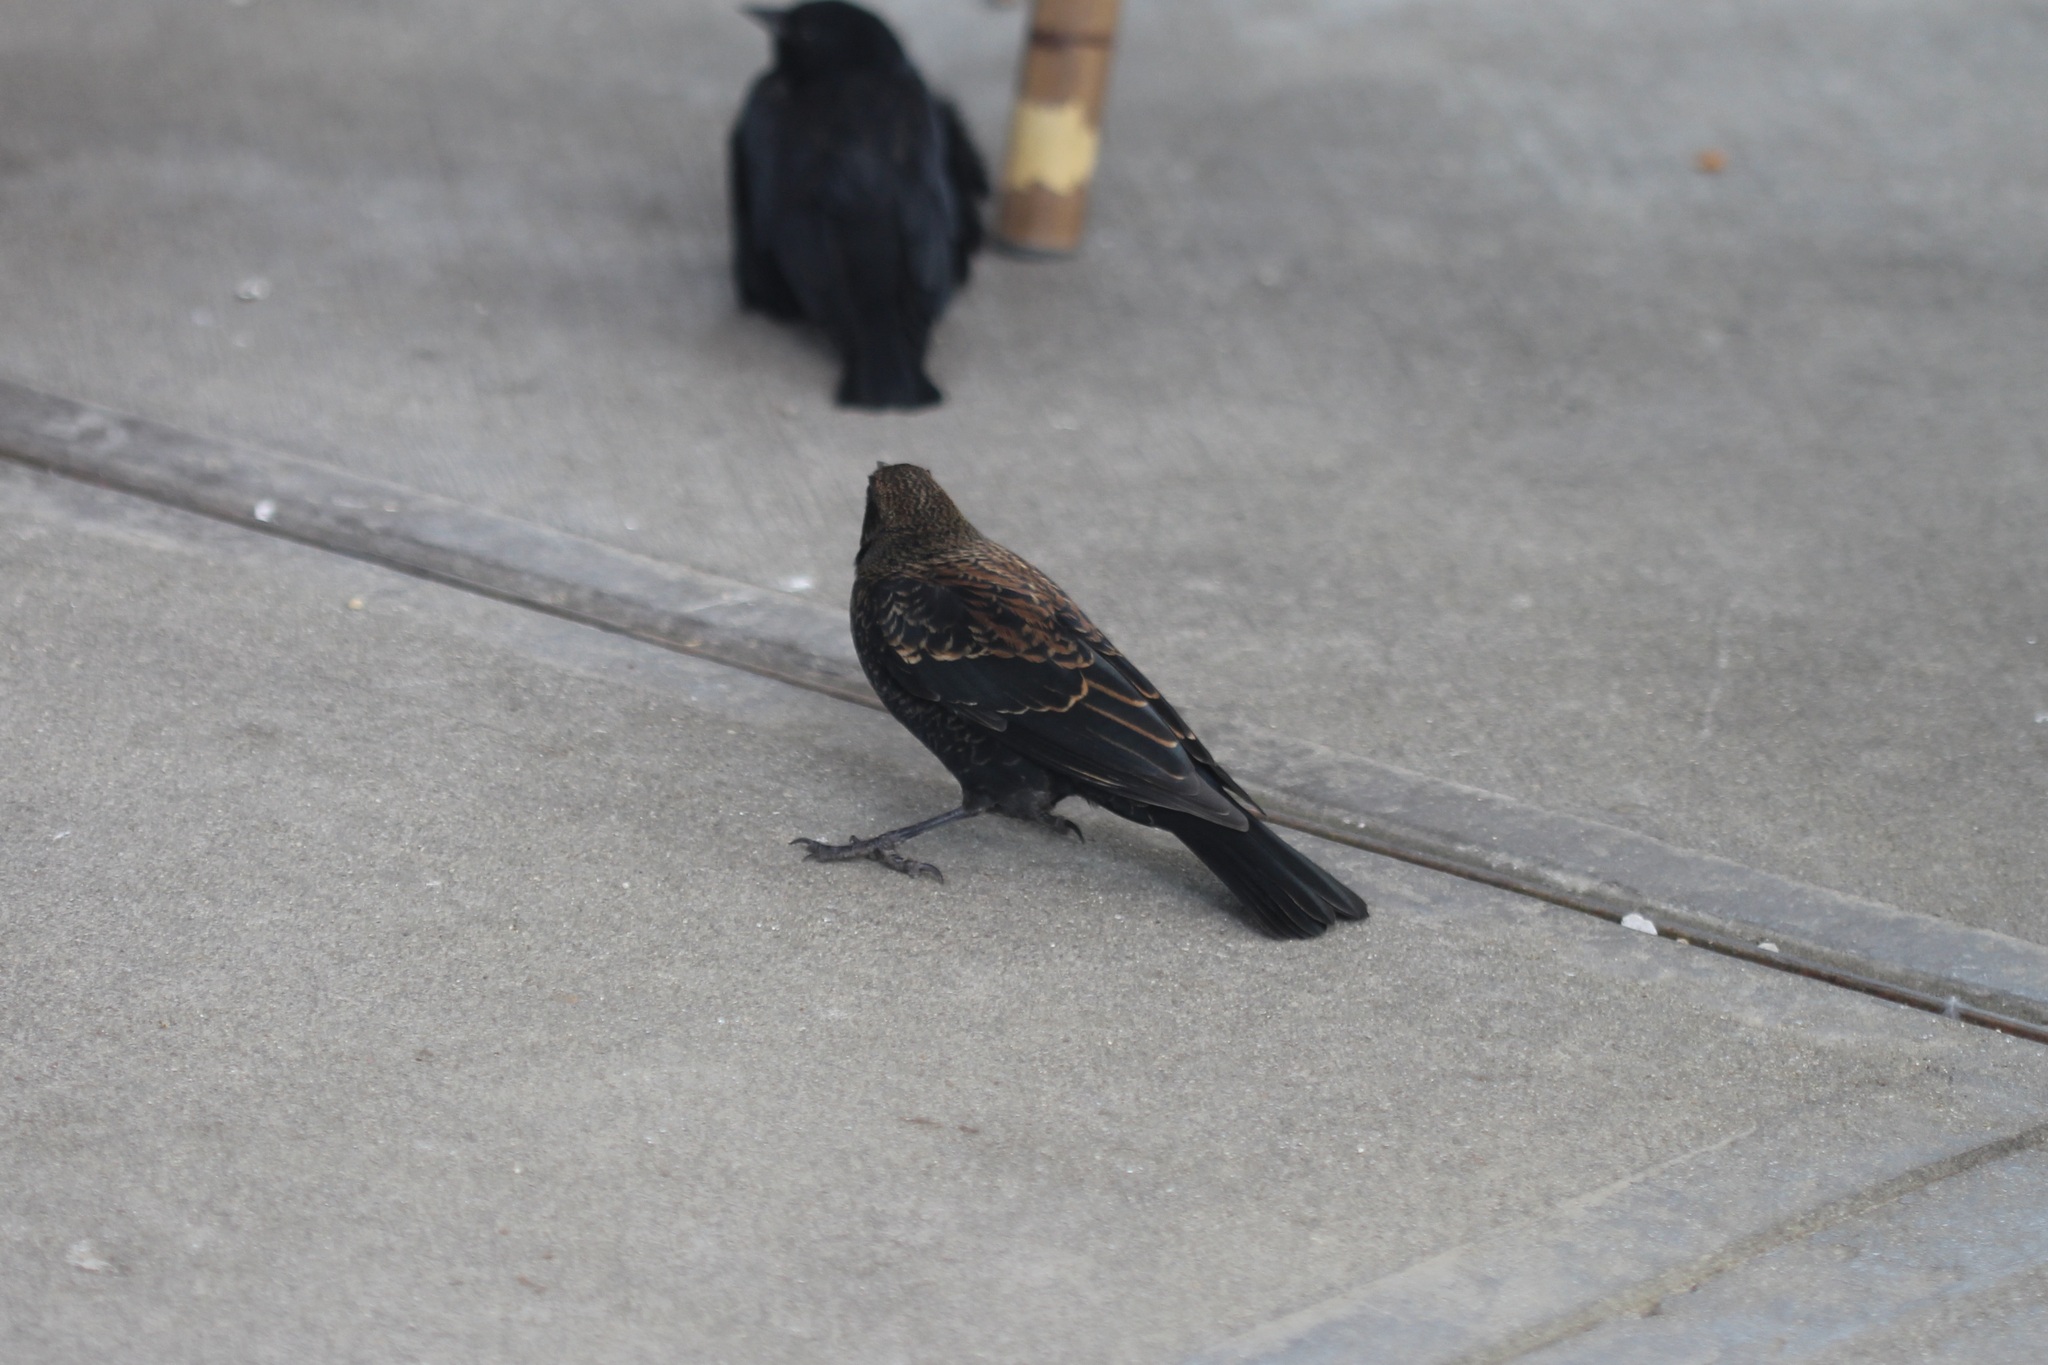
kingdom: Animalia
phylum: Chordata
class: Aves
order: Passeriformes
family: Icteridae
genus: Agelaius
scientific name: Agelaius phoeniceus
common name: Red-winged blackbird
